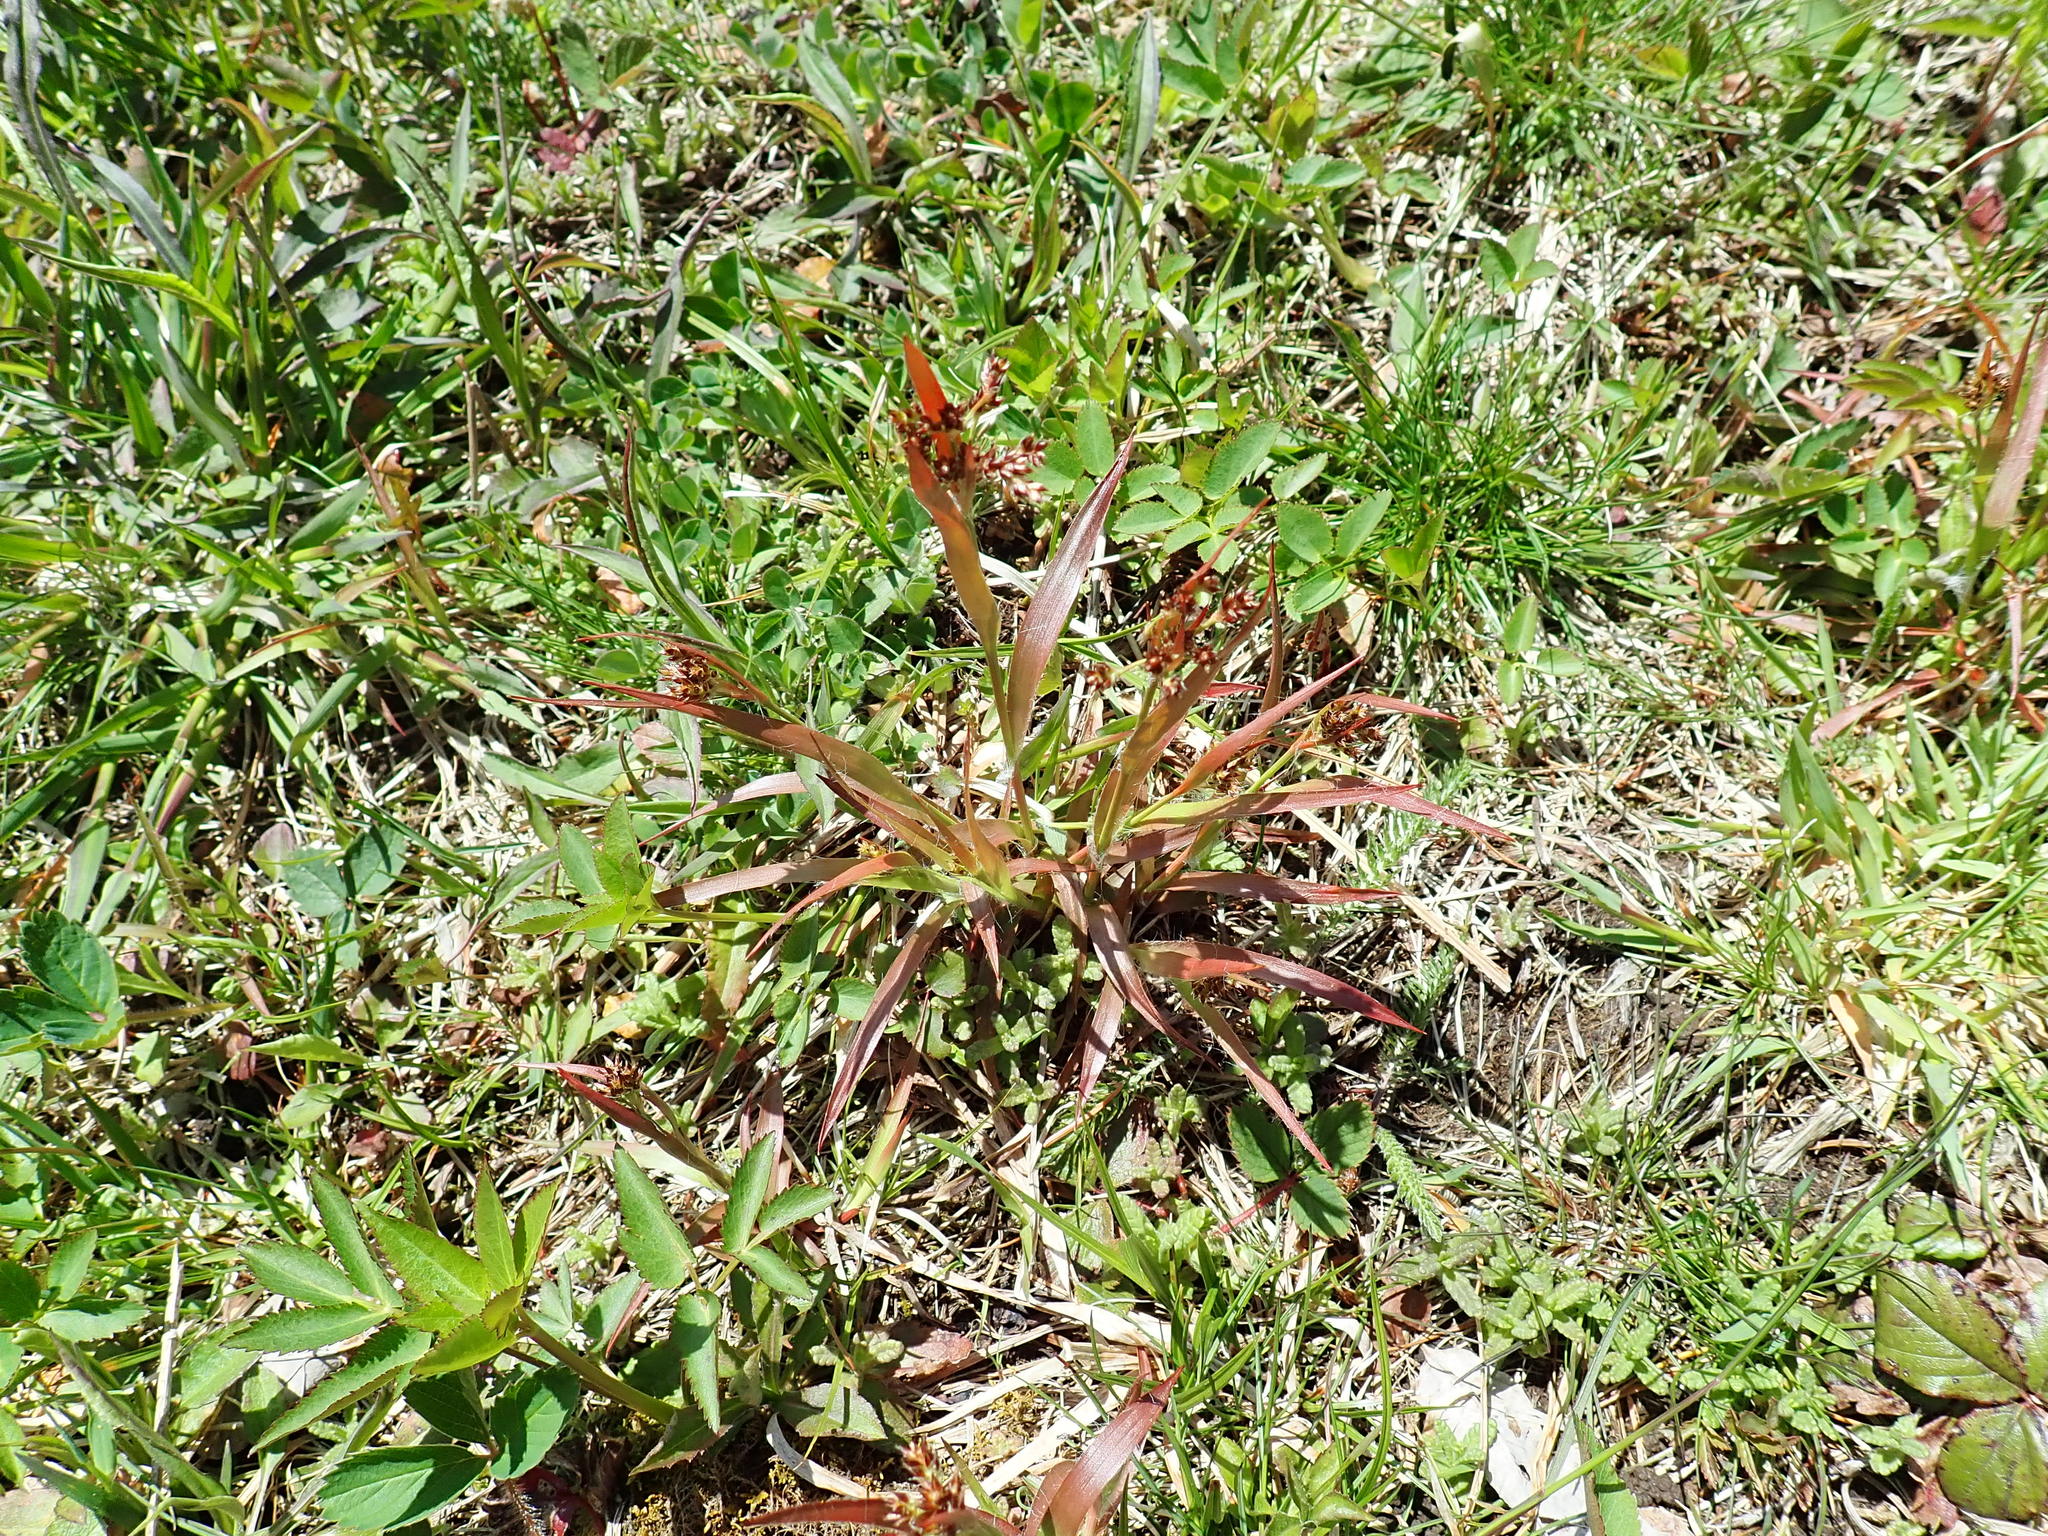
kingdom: Plantae
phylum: Tracheophyta
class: Liliopsida
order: Poales
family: Juncaceae
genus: Luzula
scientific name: Luzula multiflora
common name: Heath wood-rush
